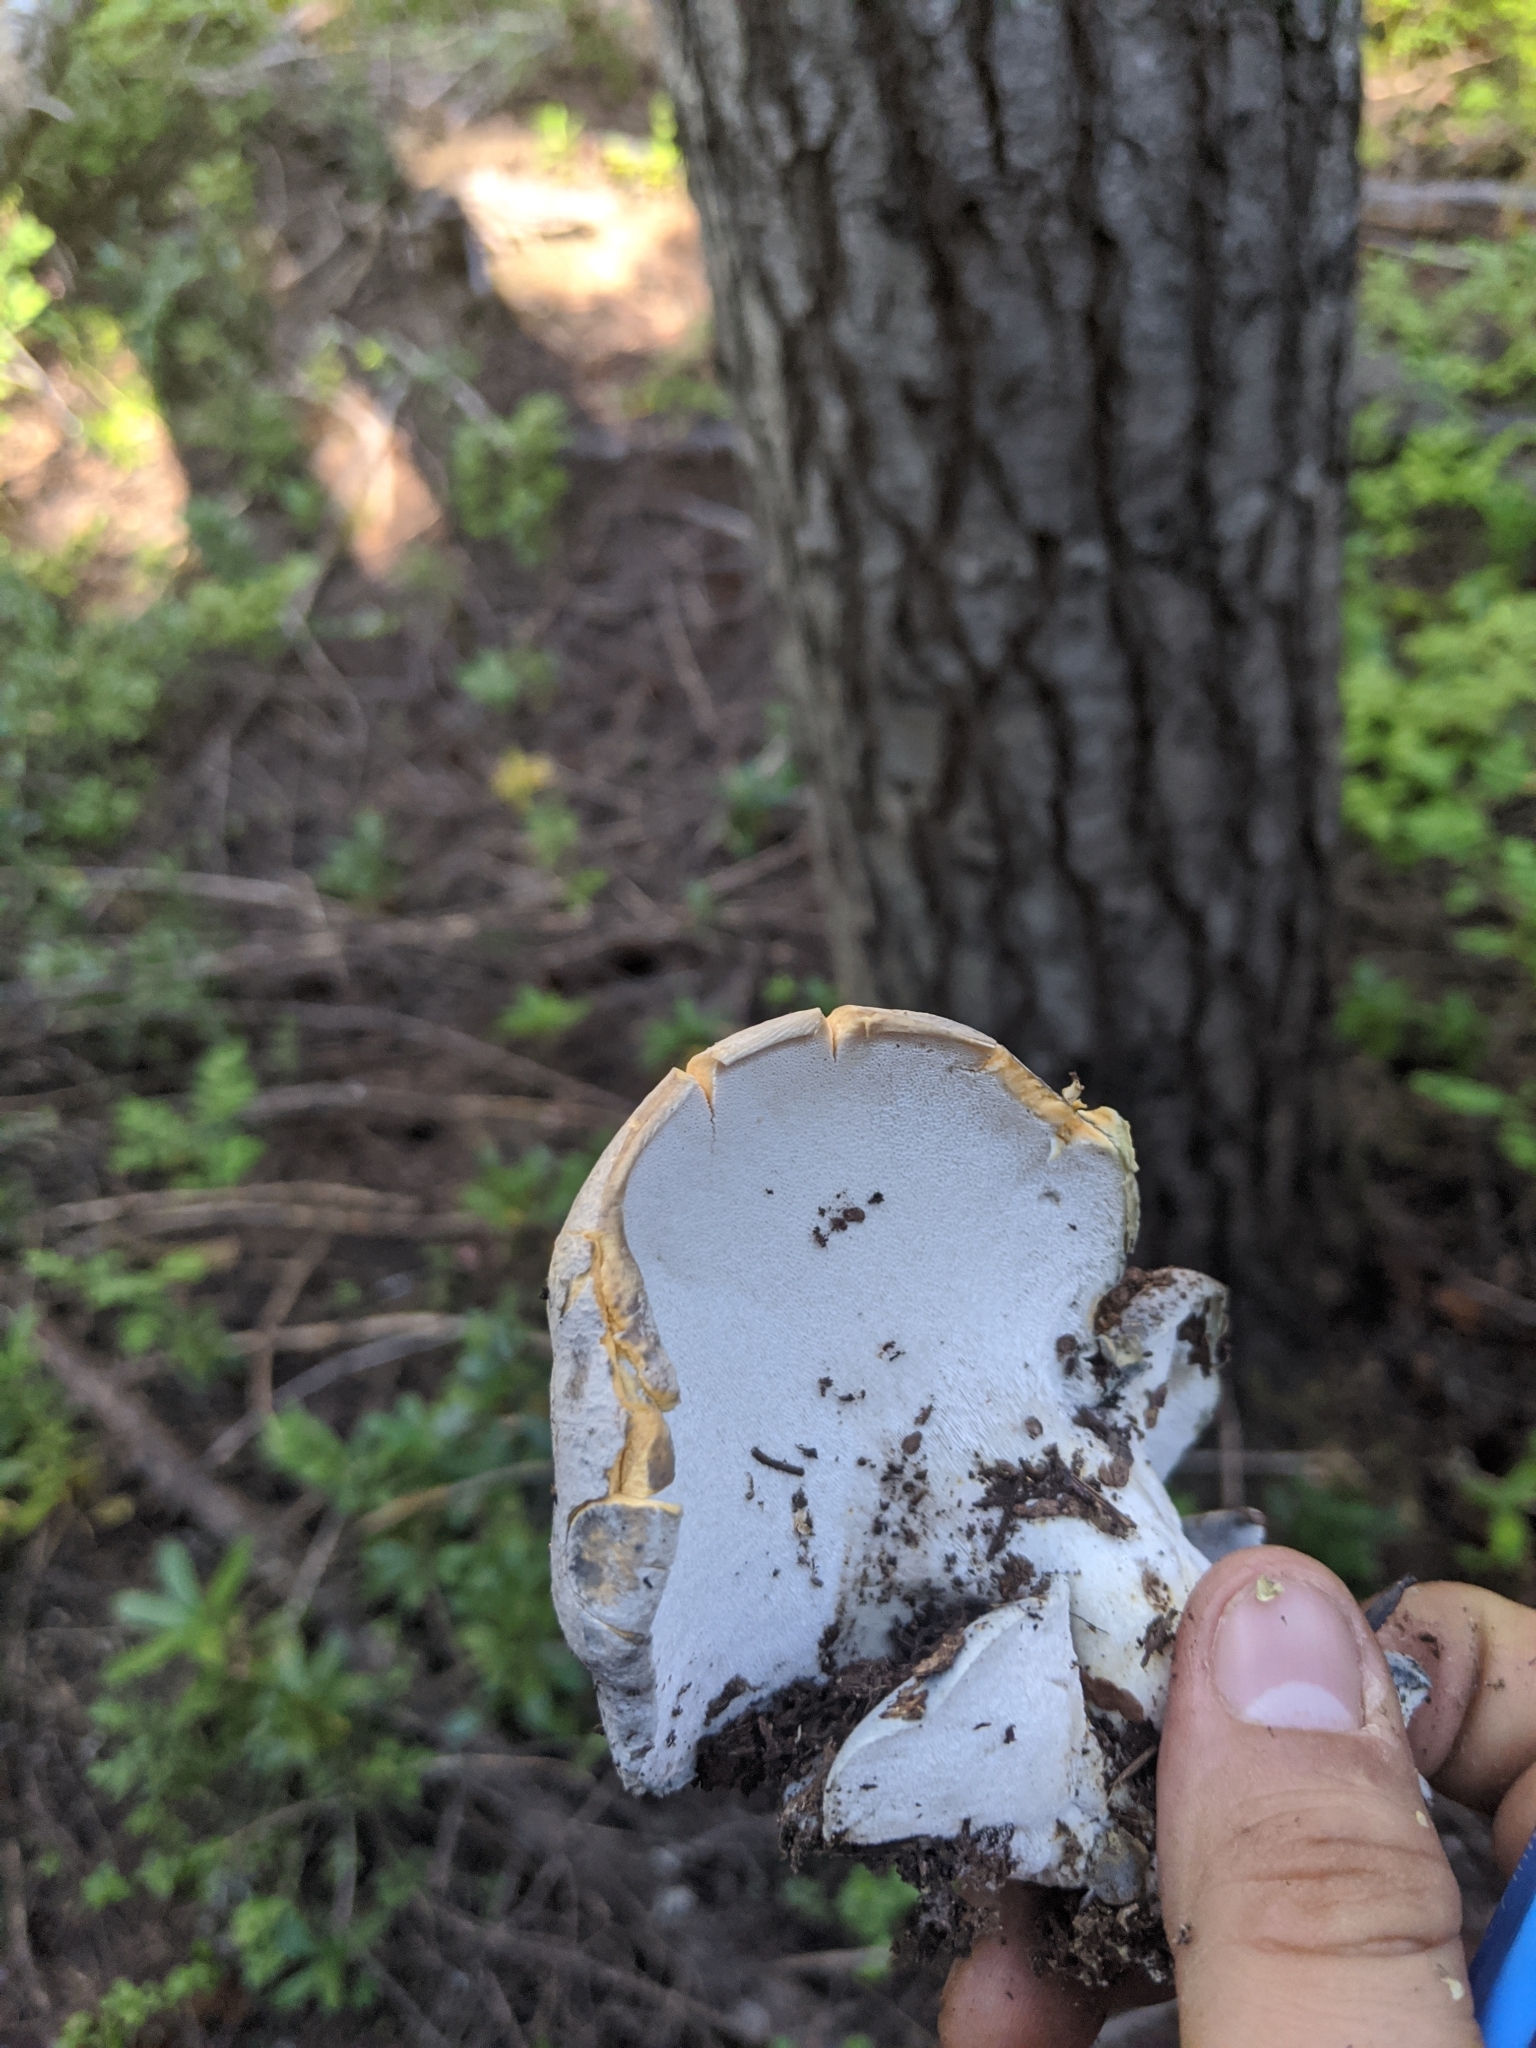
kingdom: Fungi
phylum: Basidiomycota
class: Agaricomycetes
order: Russulales
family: Albatrellaceae
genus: Albatrellopsis
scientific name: Albatrellopsis flettii
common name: Blue polypore
